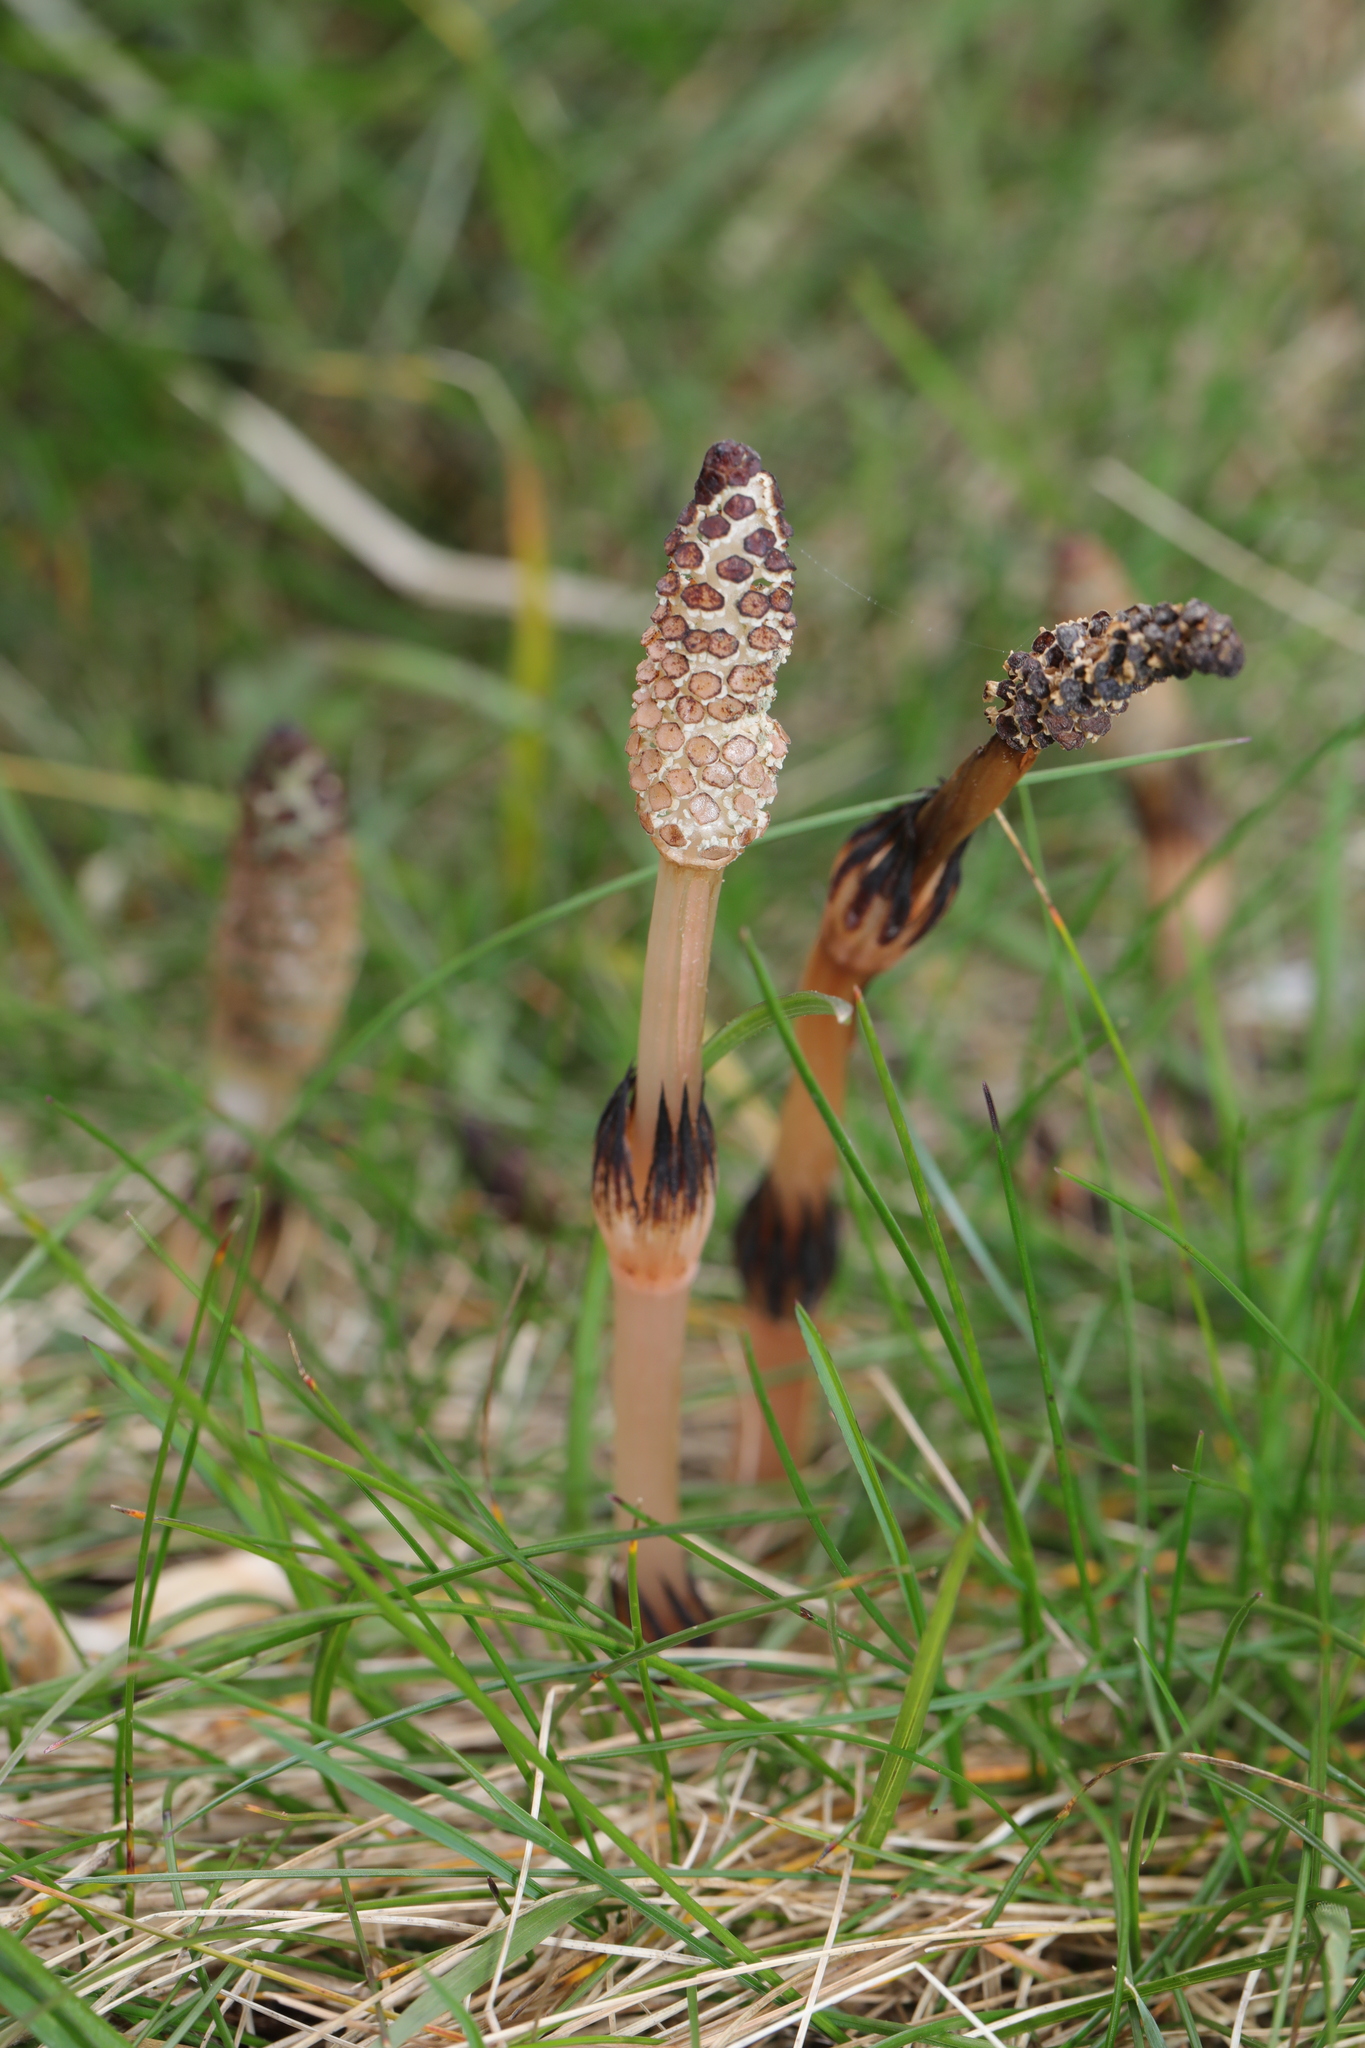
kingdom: Plantae
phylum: Tracheophyta
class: Polypodiopsida
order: Equisetales
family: Equisetaceae
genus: Equisetum
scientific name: Equisetum arvense
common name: Field horsetail
